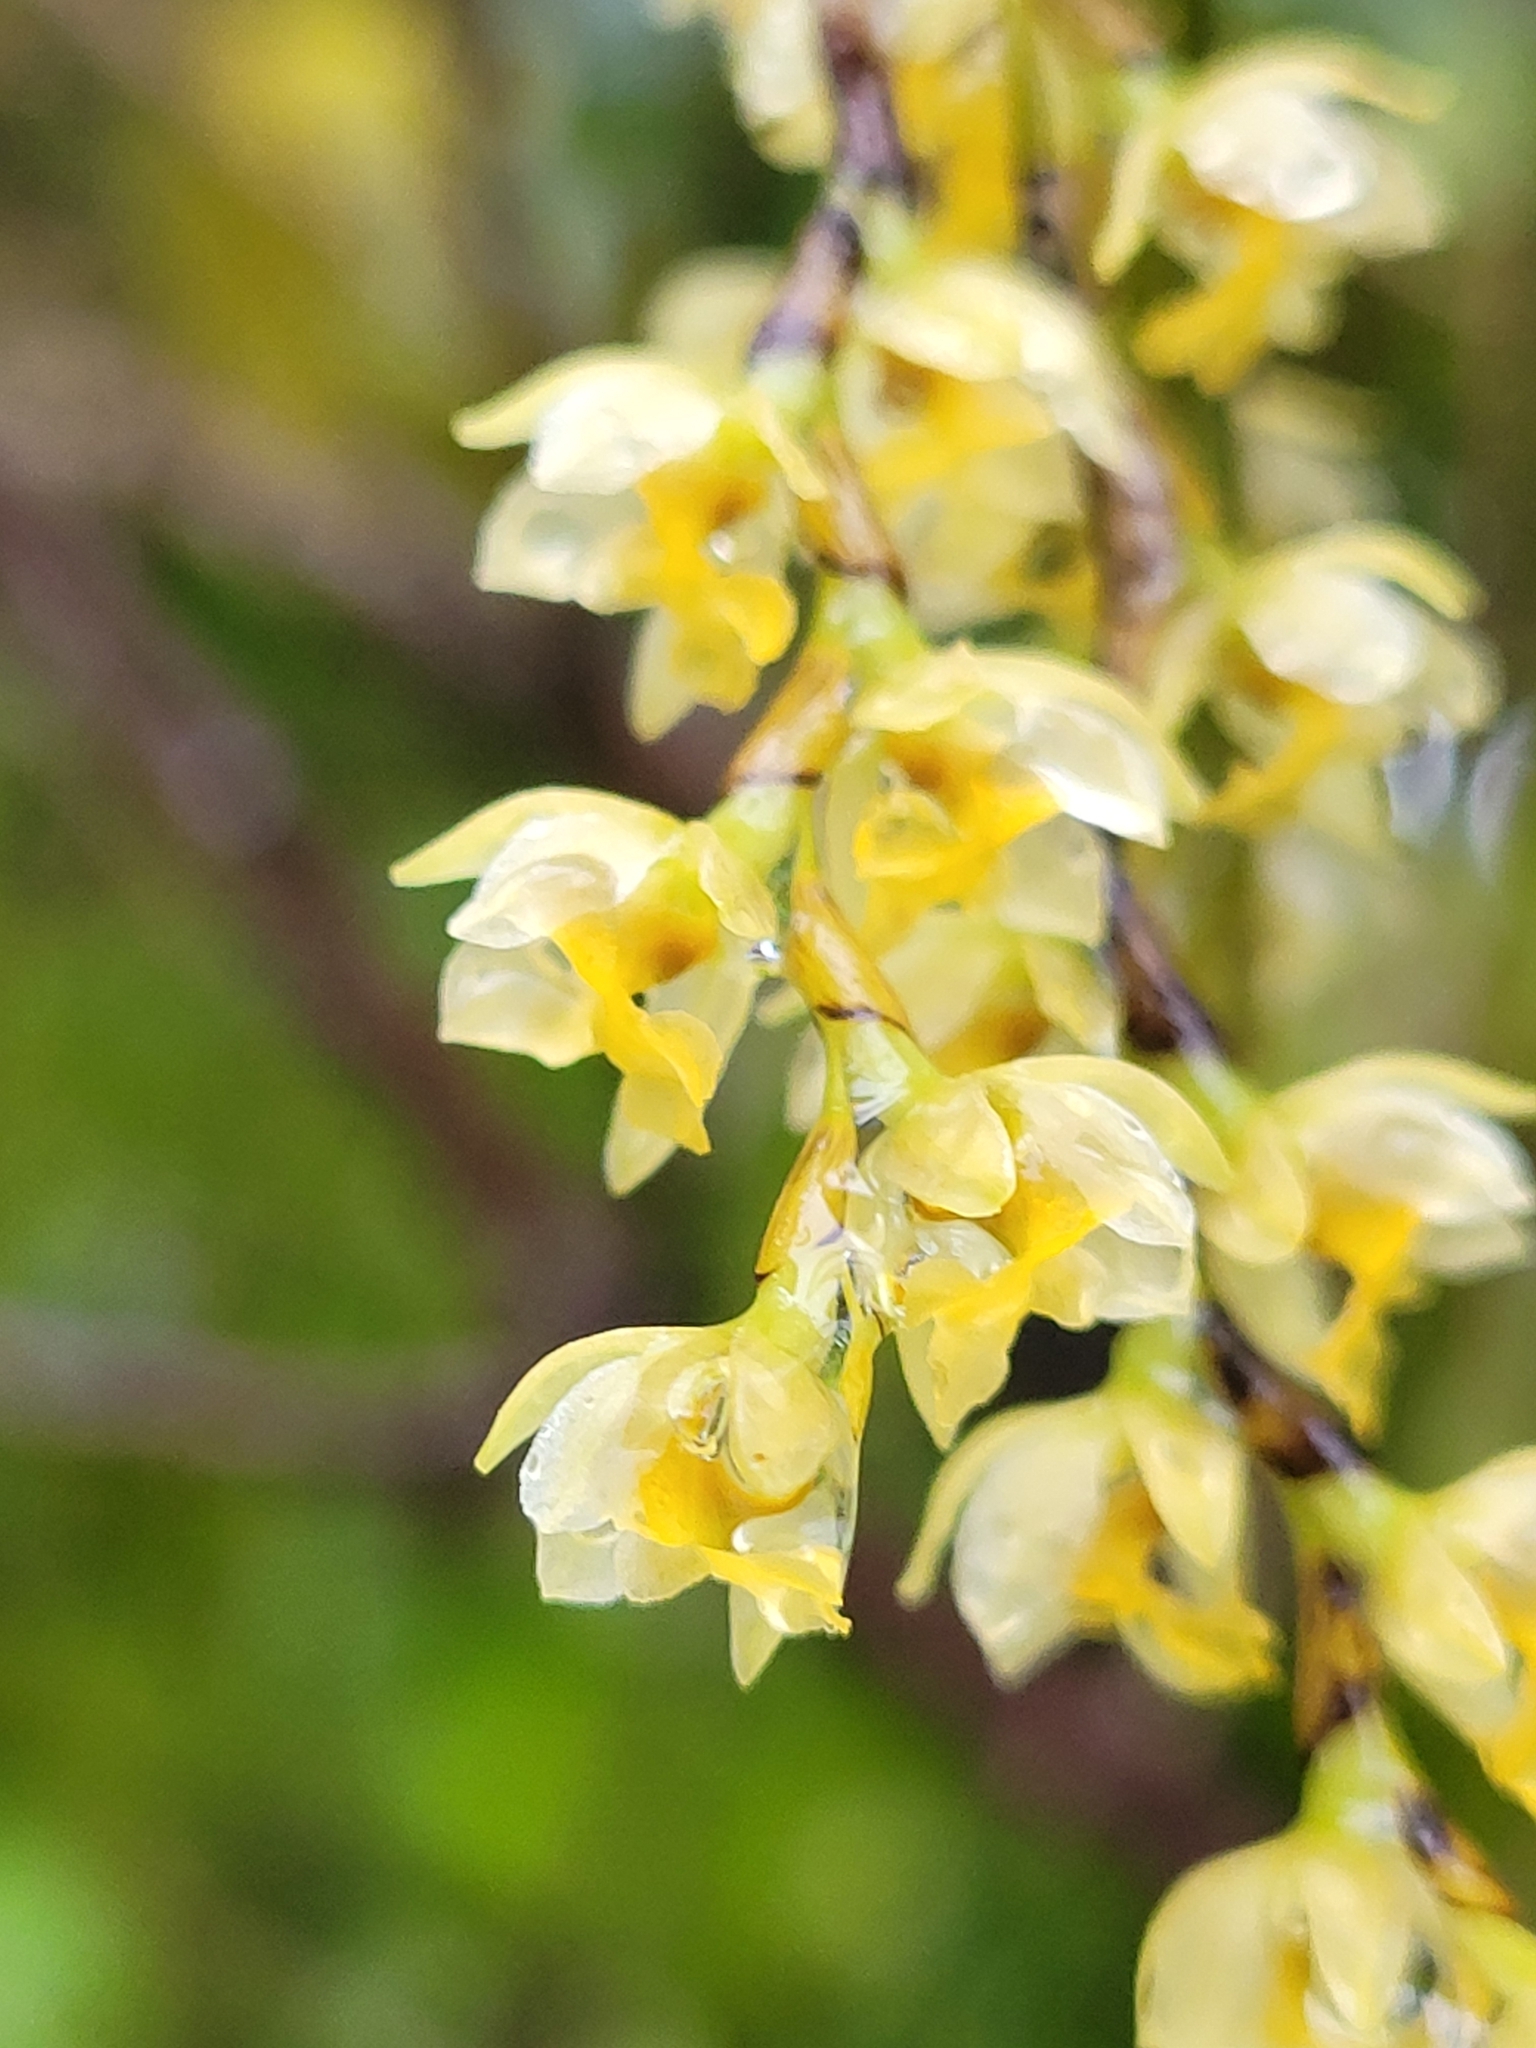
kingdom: Plantae
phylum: Tracheophyta
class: Liliopsida
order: Asparagales
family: Orchidaceae
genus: Earina
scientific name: Earina mucronata
